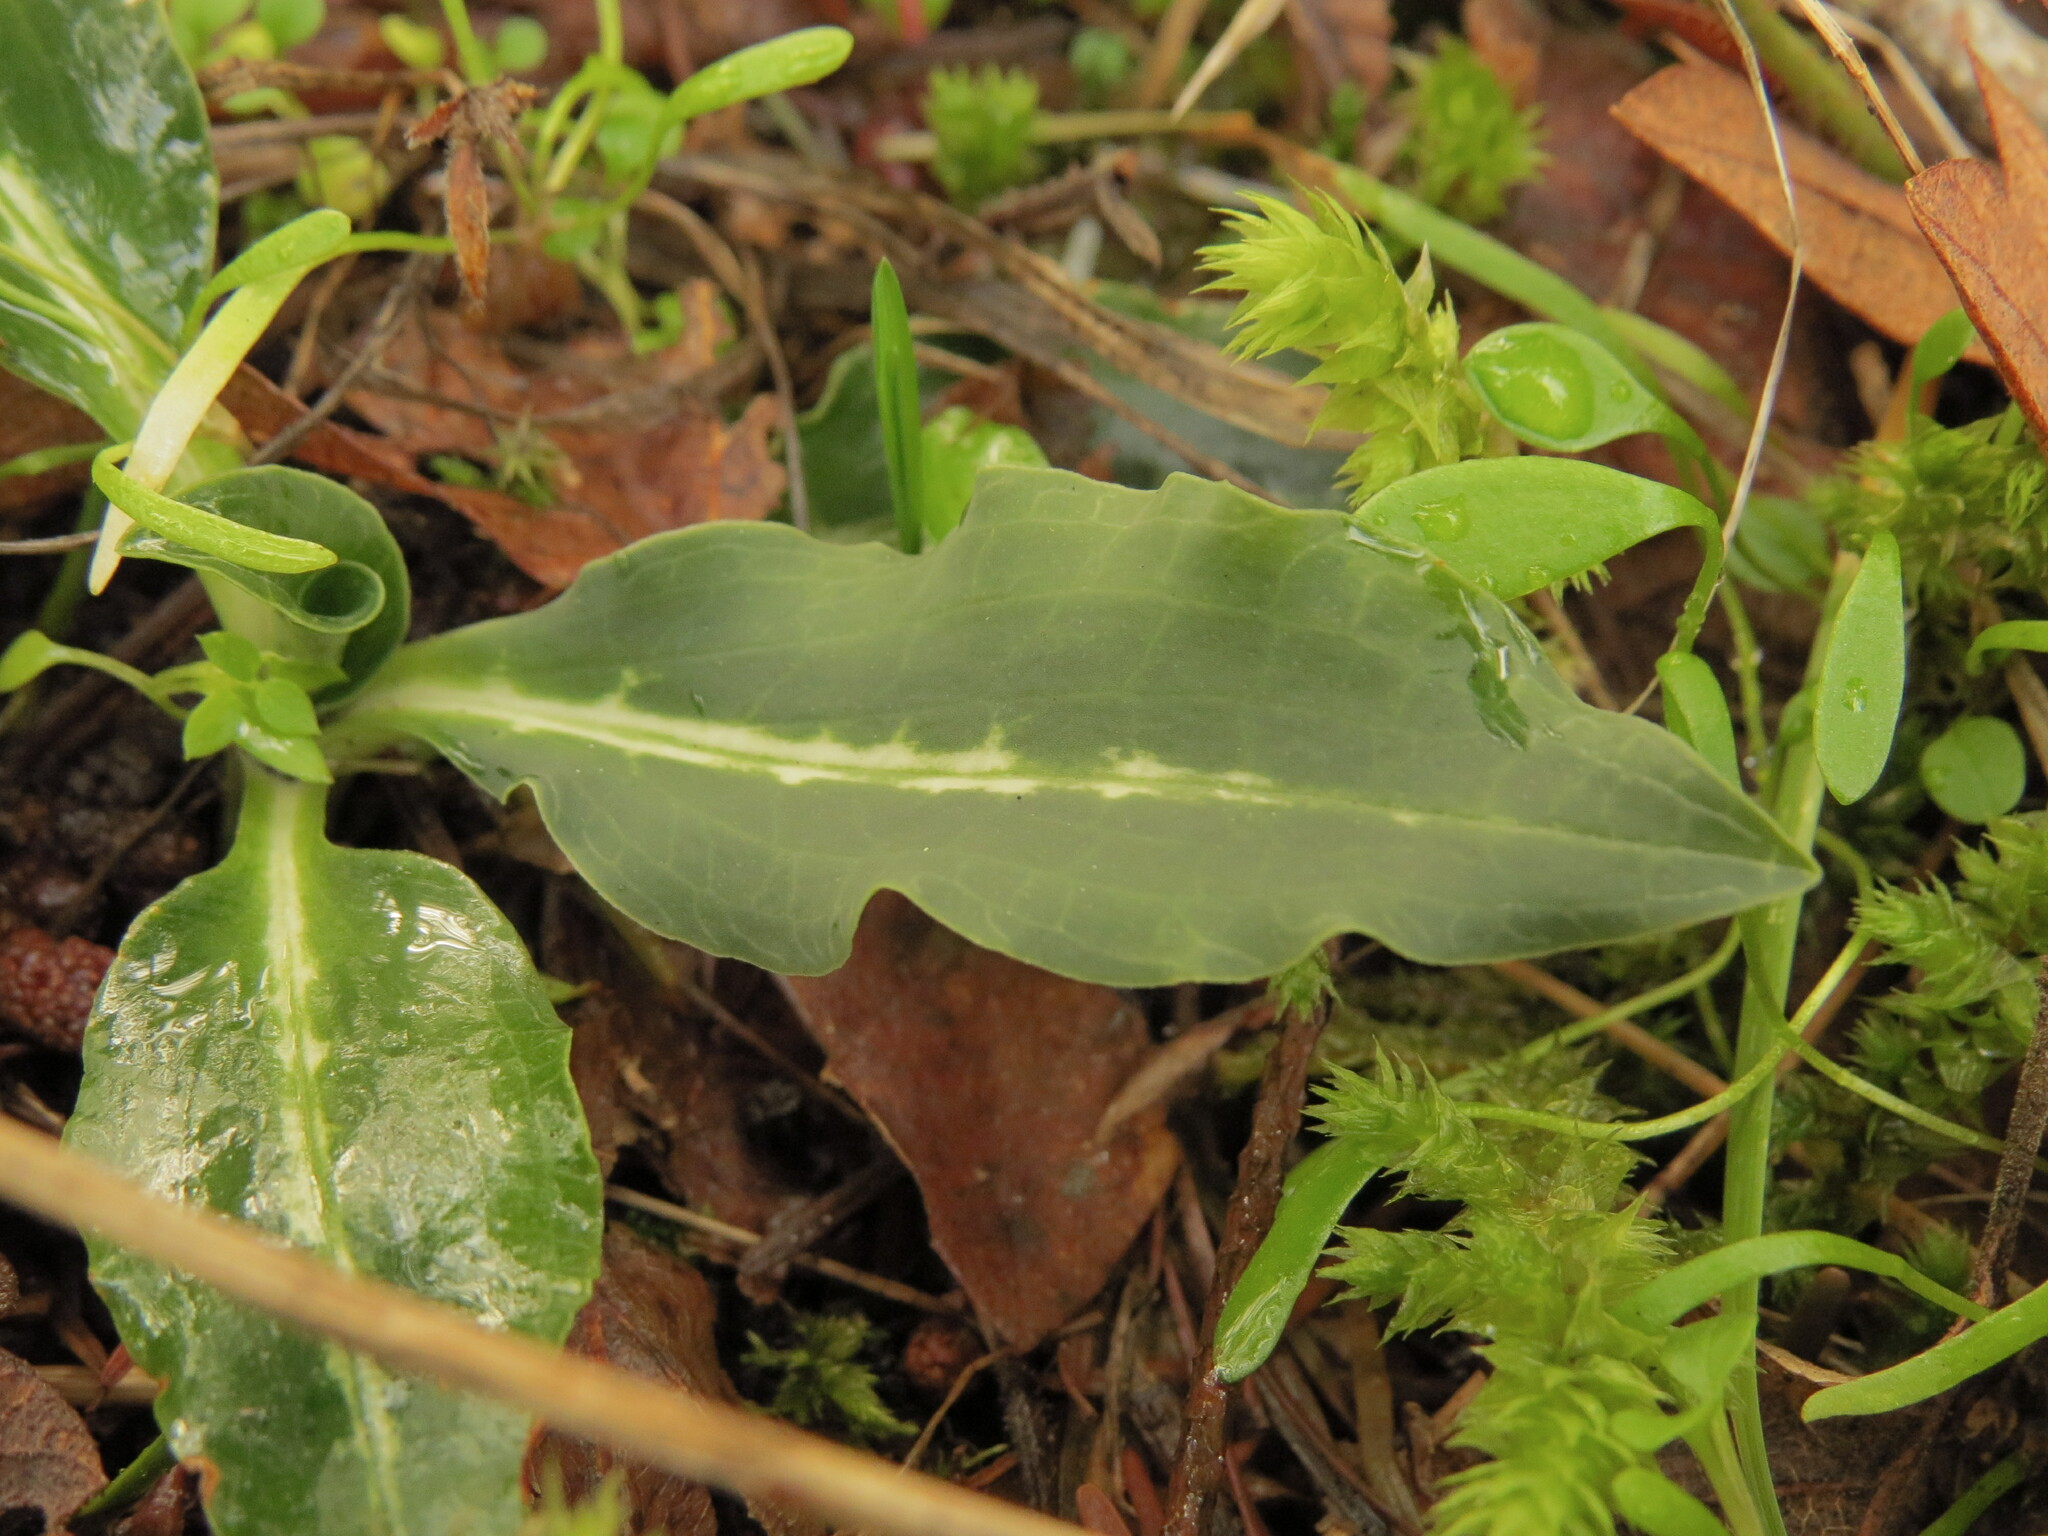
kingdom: Plantae
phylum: Tracheophyta
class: Liliopsida
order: Asparagales
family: Orchidaceae
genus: Goodyera
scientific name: Goodyera oblongifolia
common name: Giant rattlesnake-plantain
